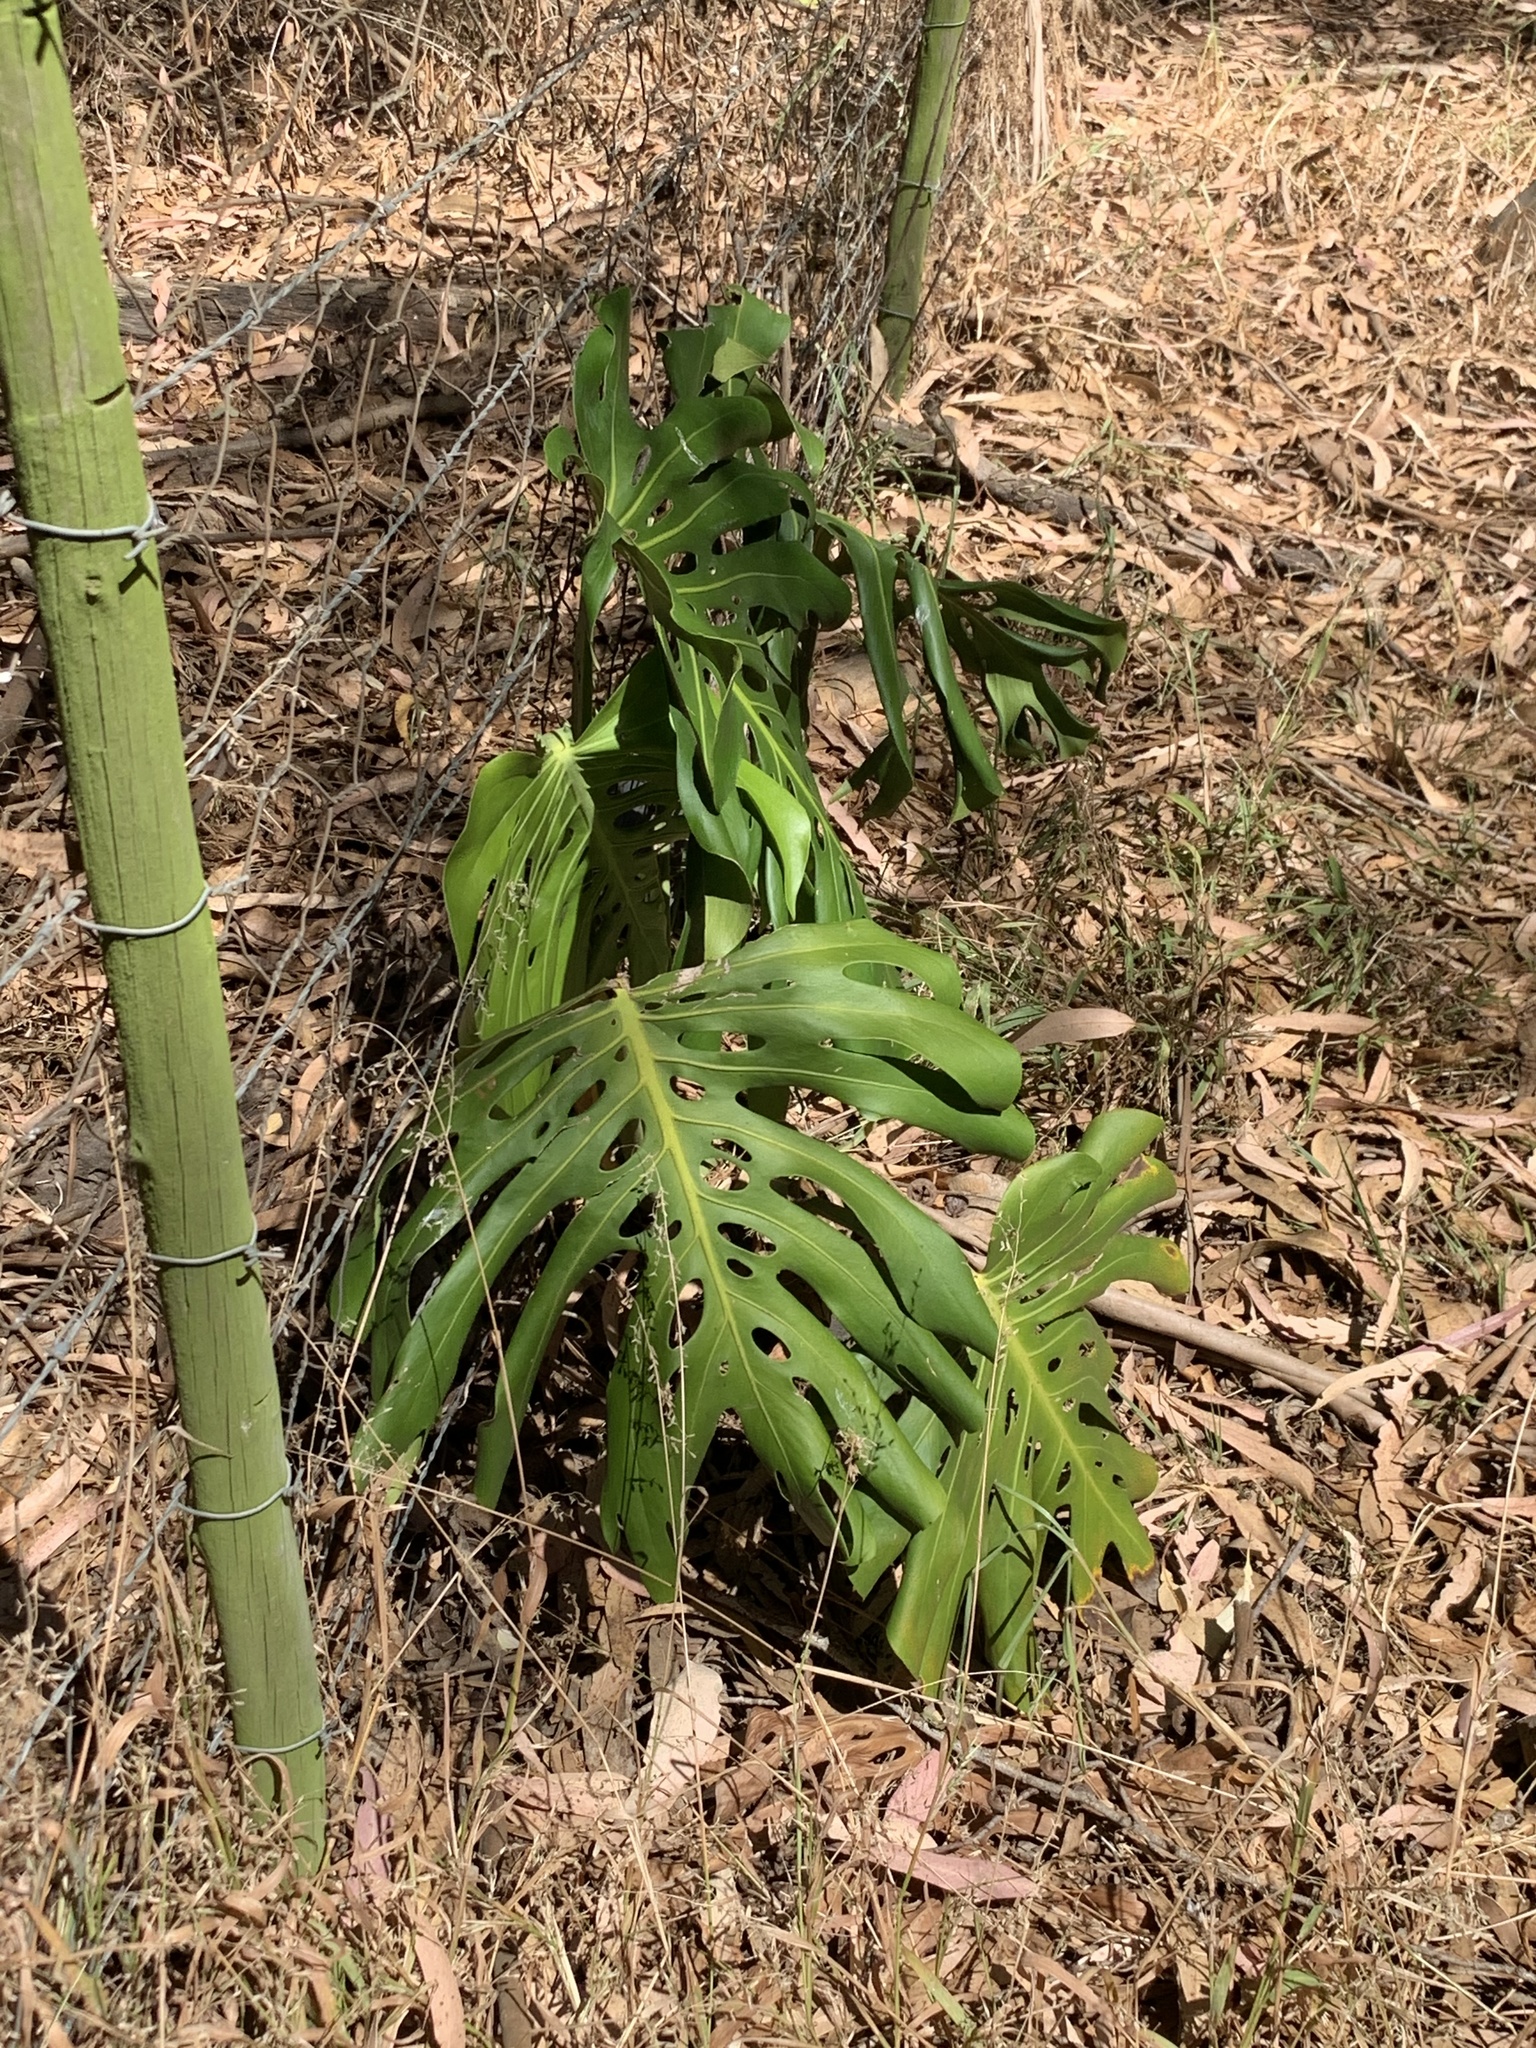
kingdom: Plantae
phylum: Tracheophyta
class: Liliopsida
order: Alismatales
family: Araceae
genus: Monstera
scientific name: Monstera deliciosa
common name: Cut-leaf-philodendron
